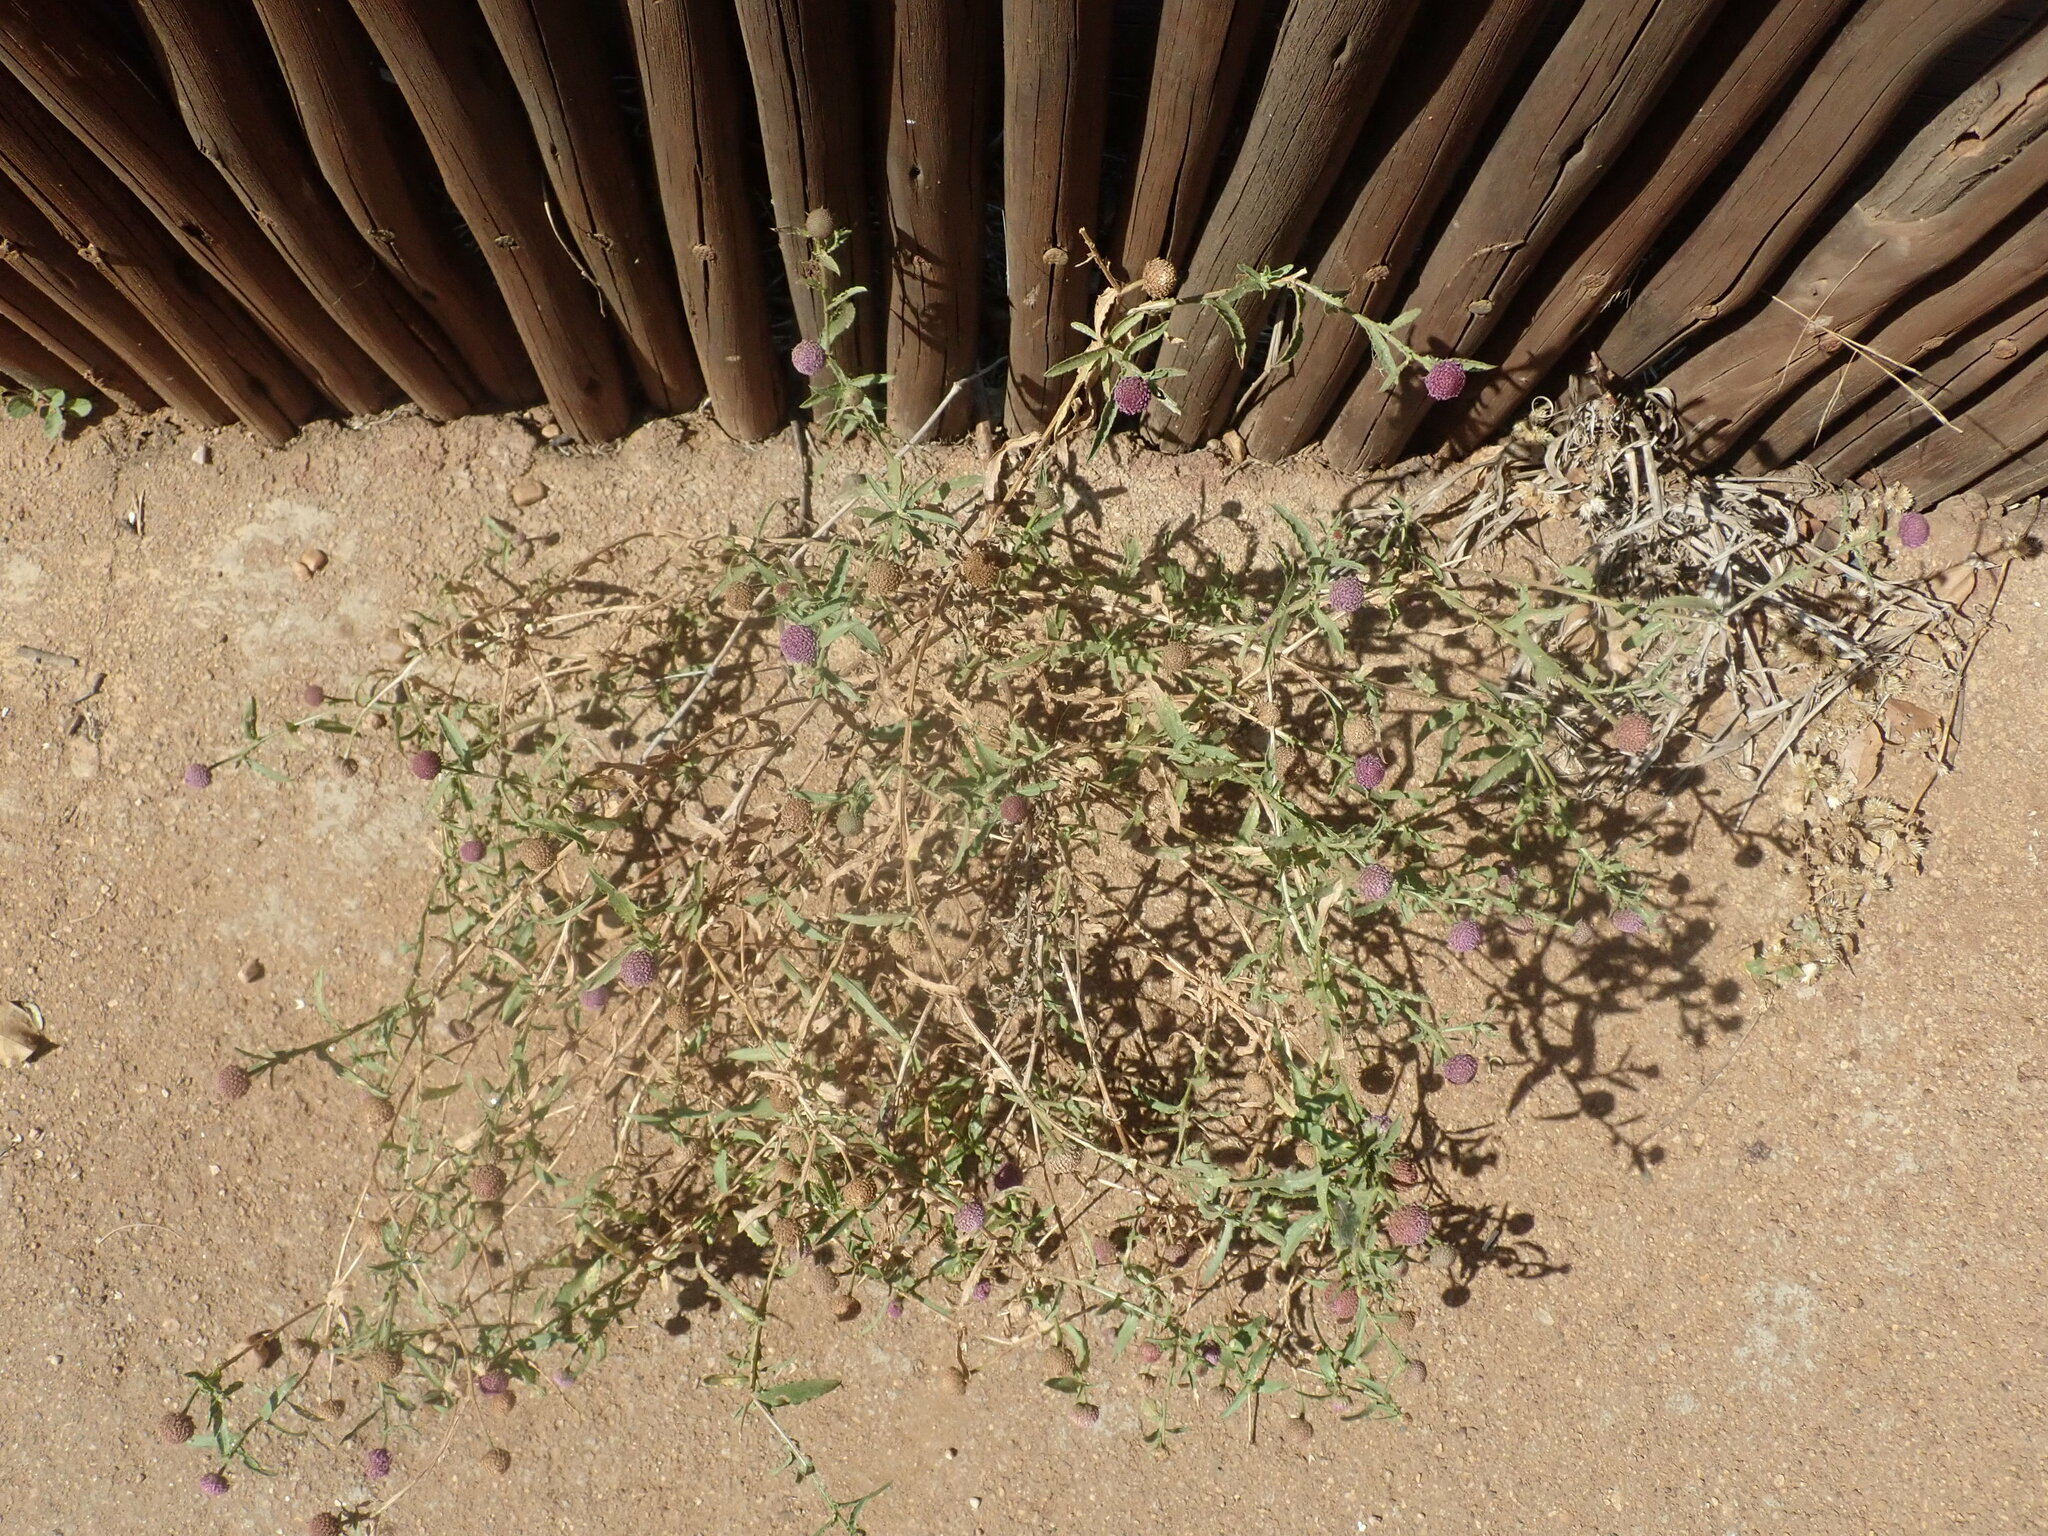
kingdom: Plantae
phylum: Tracheophyta
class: Magnoliopsida
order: Asterales
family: Asteraceae
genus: Sphaeranthus
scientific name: Sphaeranthus peduncularis
